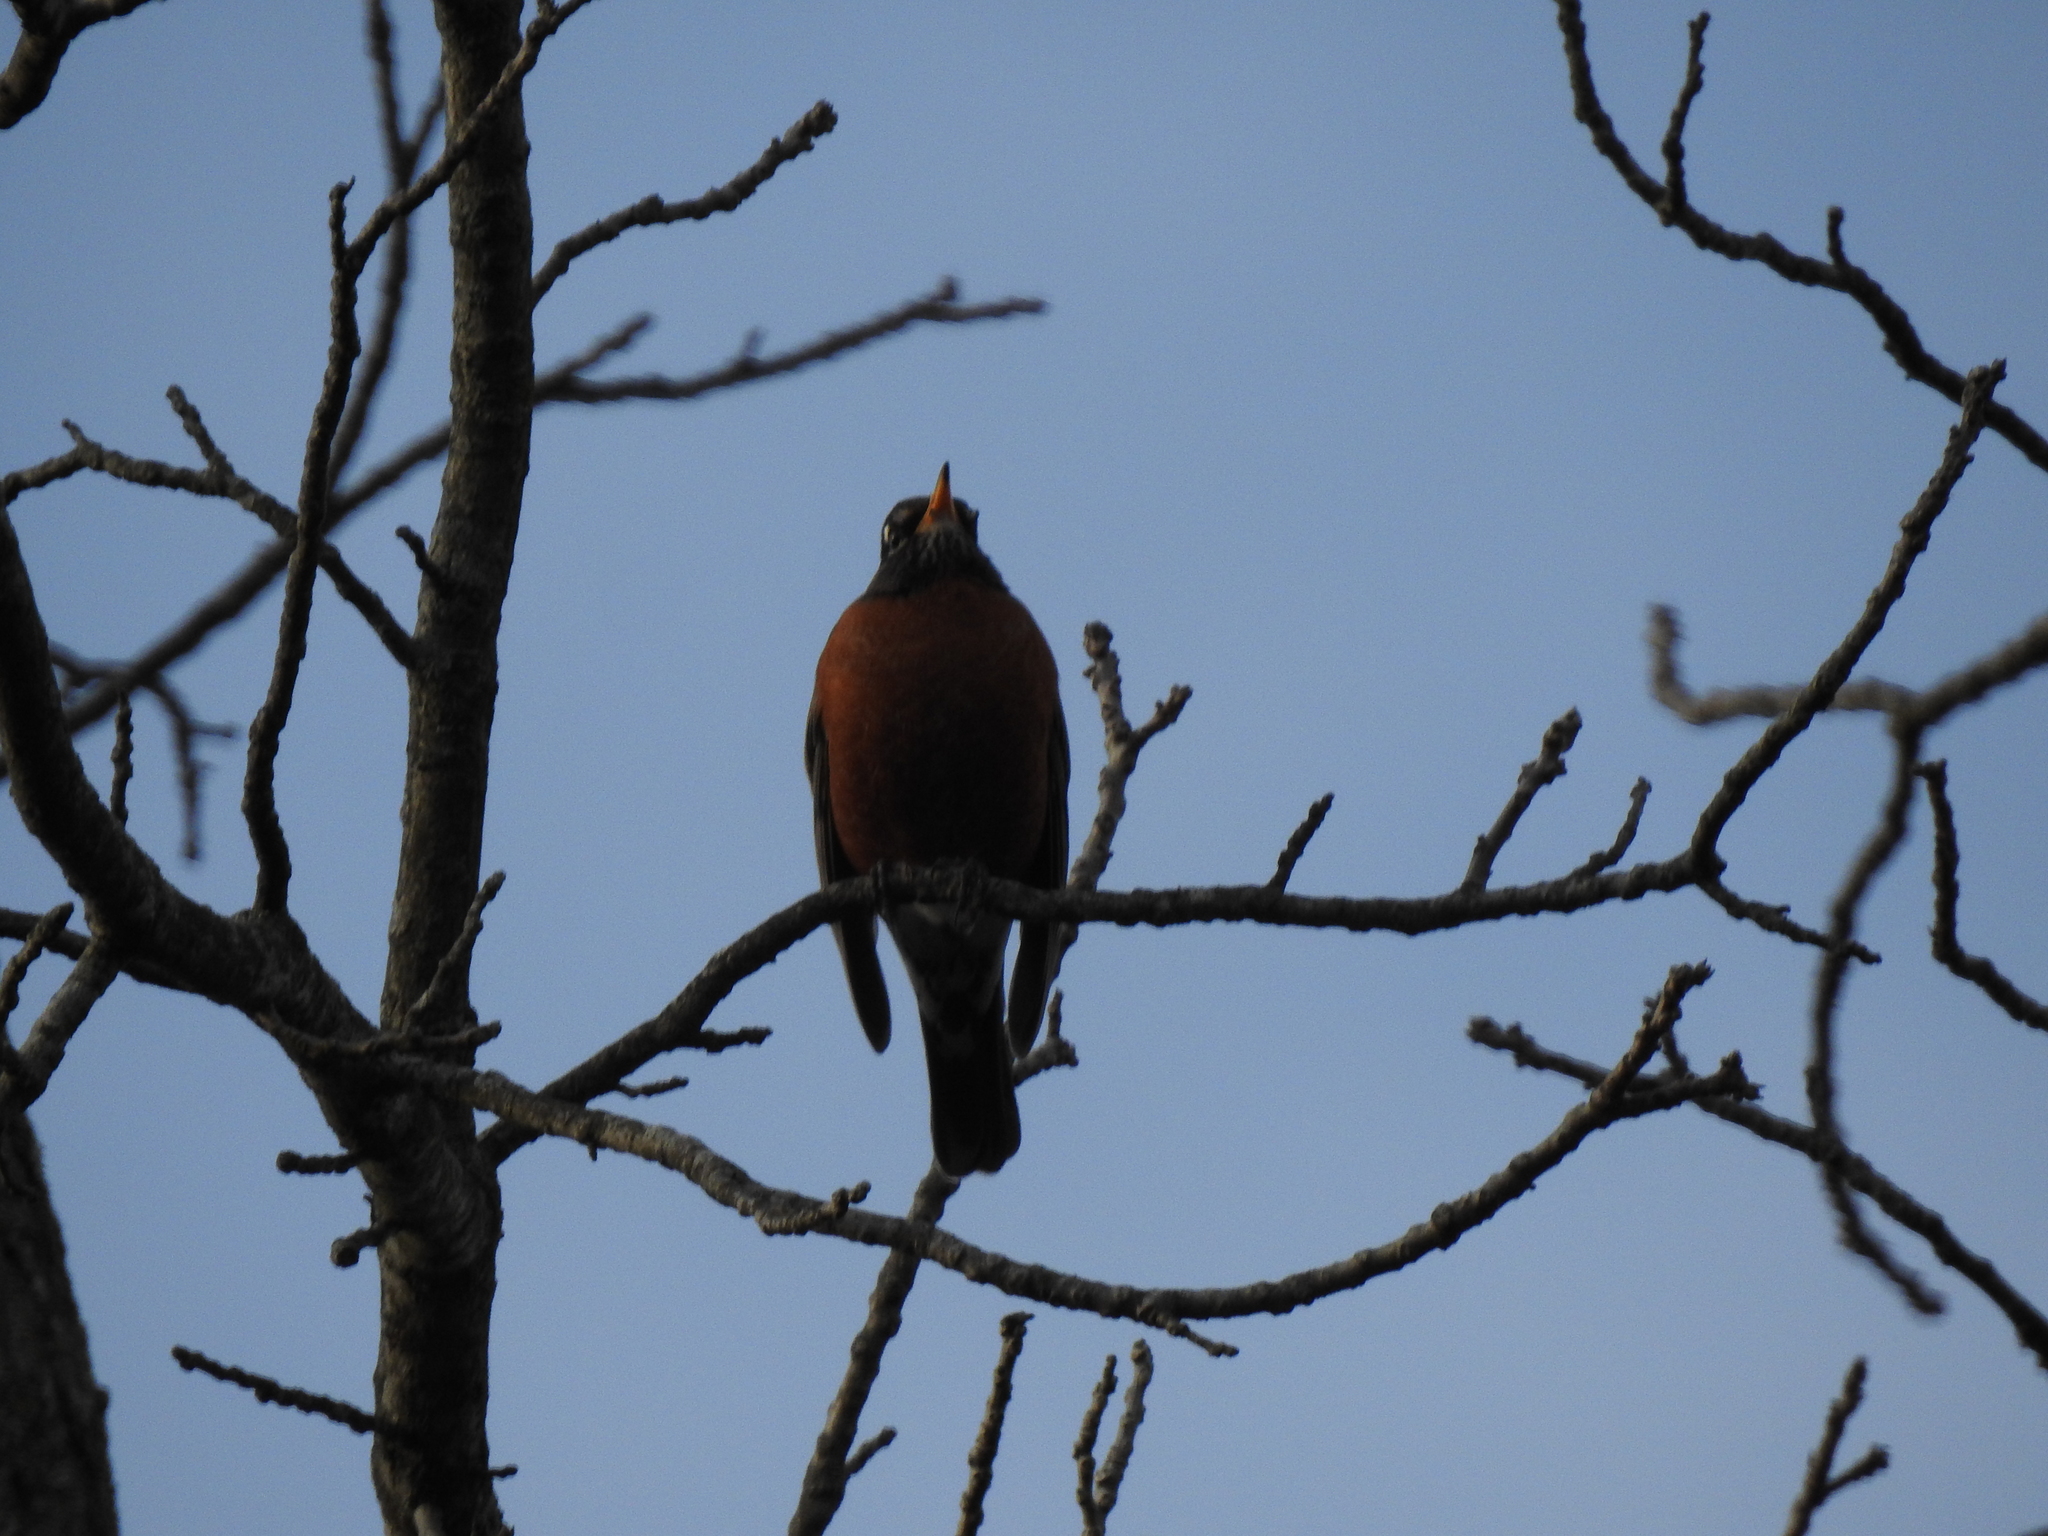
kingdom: Animalia
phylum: Chordata
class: Aves
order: Passeriformes
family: Turdidae
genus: Turdus
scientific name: Turdus migratorius
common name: American robin
